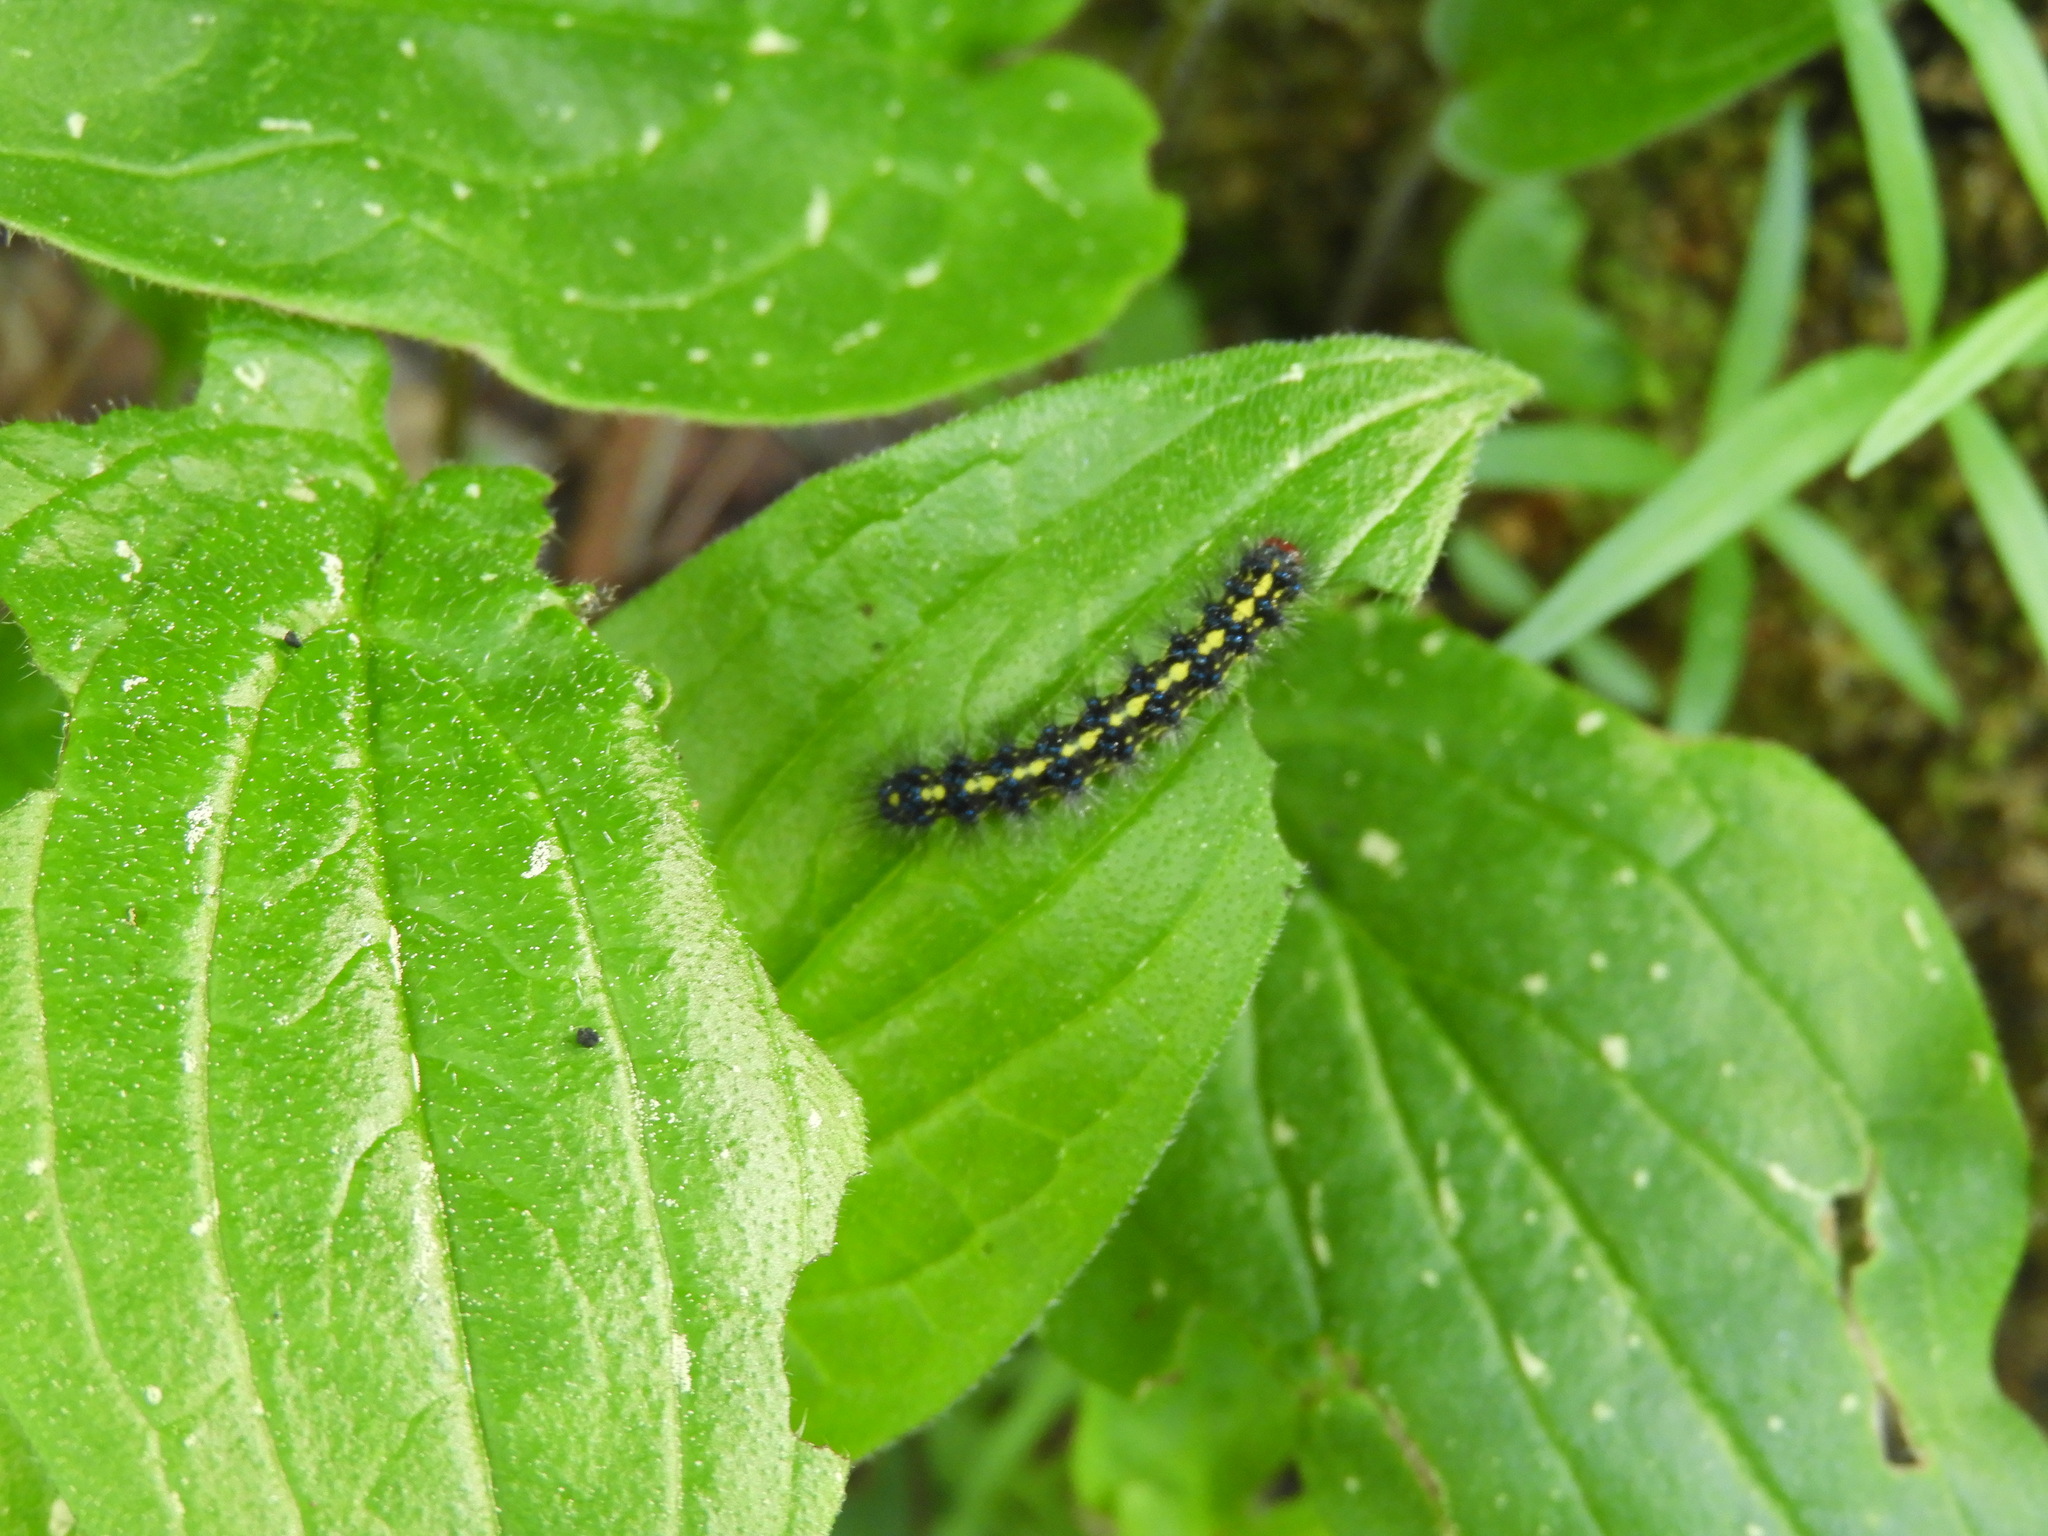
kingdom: Animalia
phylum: Arthropoda
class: Insecta
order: Lepidoptera
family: Erebidae
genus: Gnophaela
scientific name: Gnophaela vermiculata
